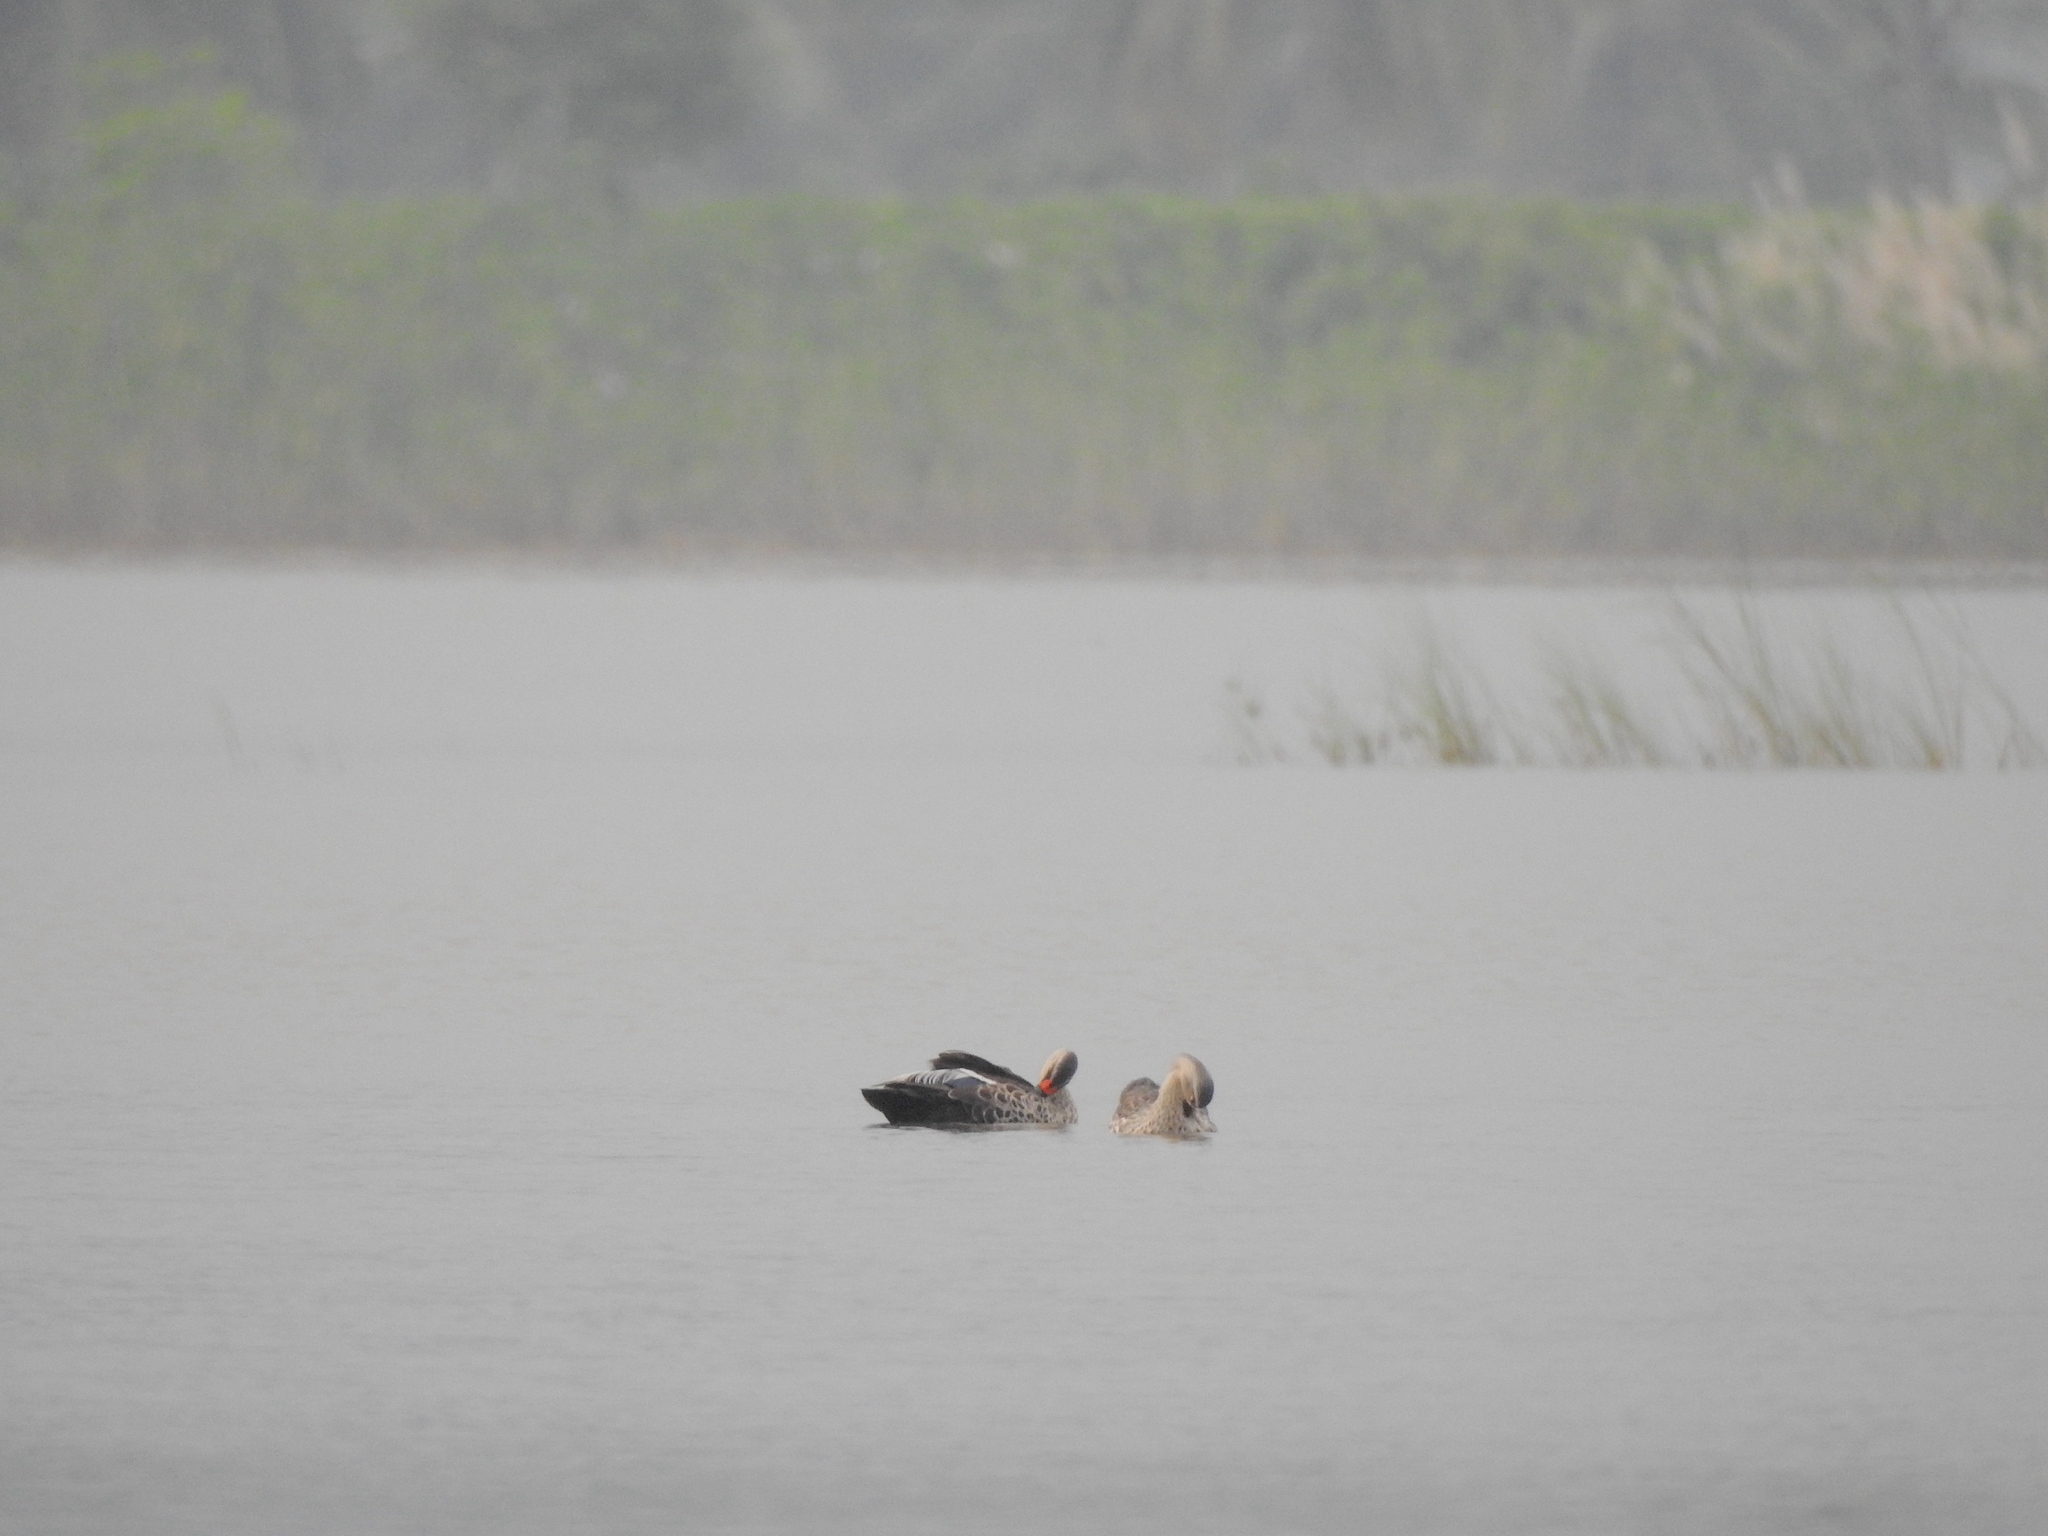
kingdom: Animalia
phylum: Chordata
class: Aves
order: Anseriformes
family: Anatidae
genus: Anas
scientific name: Anas poecilorhyncha
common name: Indian spot-billed duck
